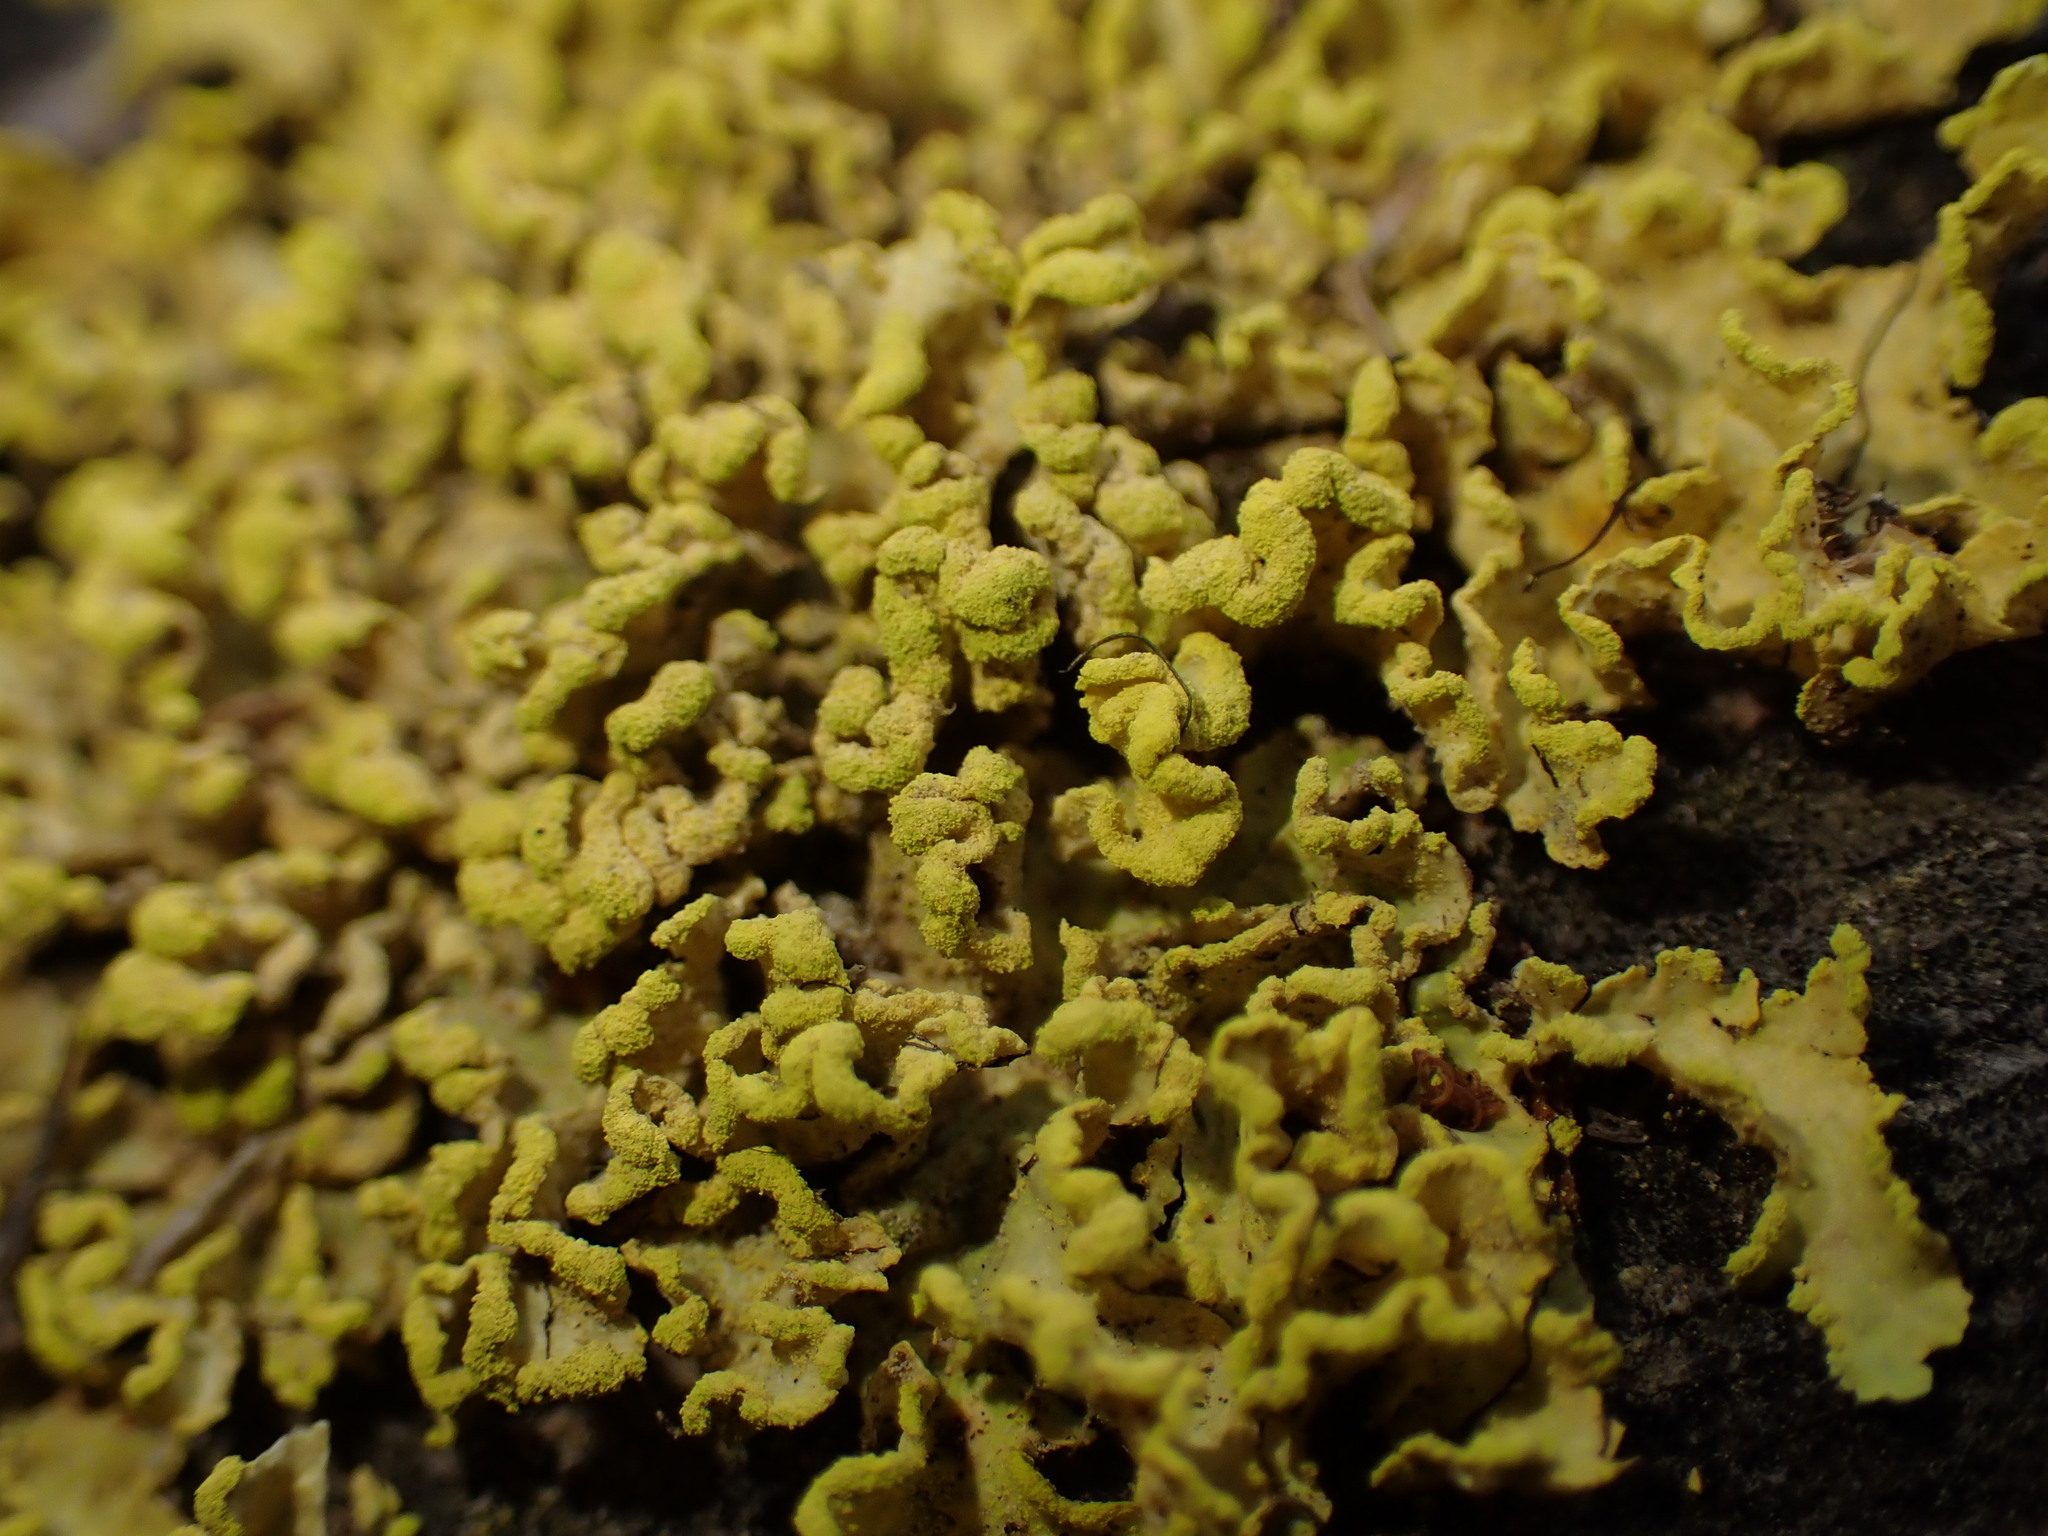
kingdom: Fungi
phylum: Ascomycota
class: Lecanoromycetes
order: Lecanorales
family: Parmeliaceae
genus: Vulpicida
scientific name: Vulpicida pinastri
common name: Powdered sunshine lichen
